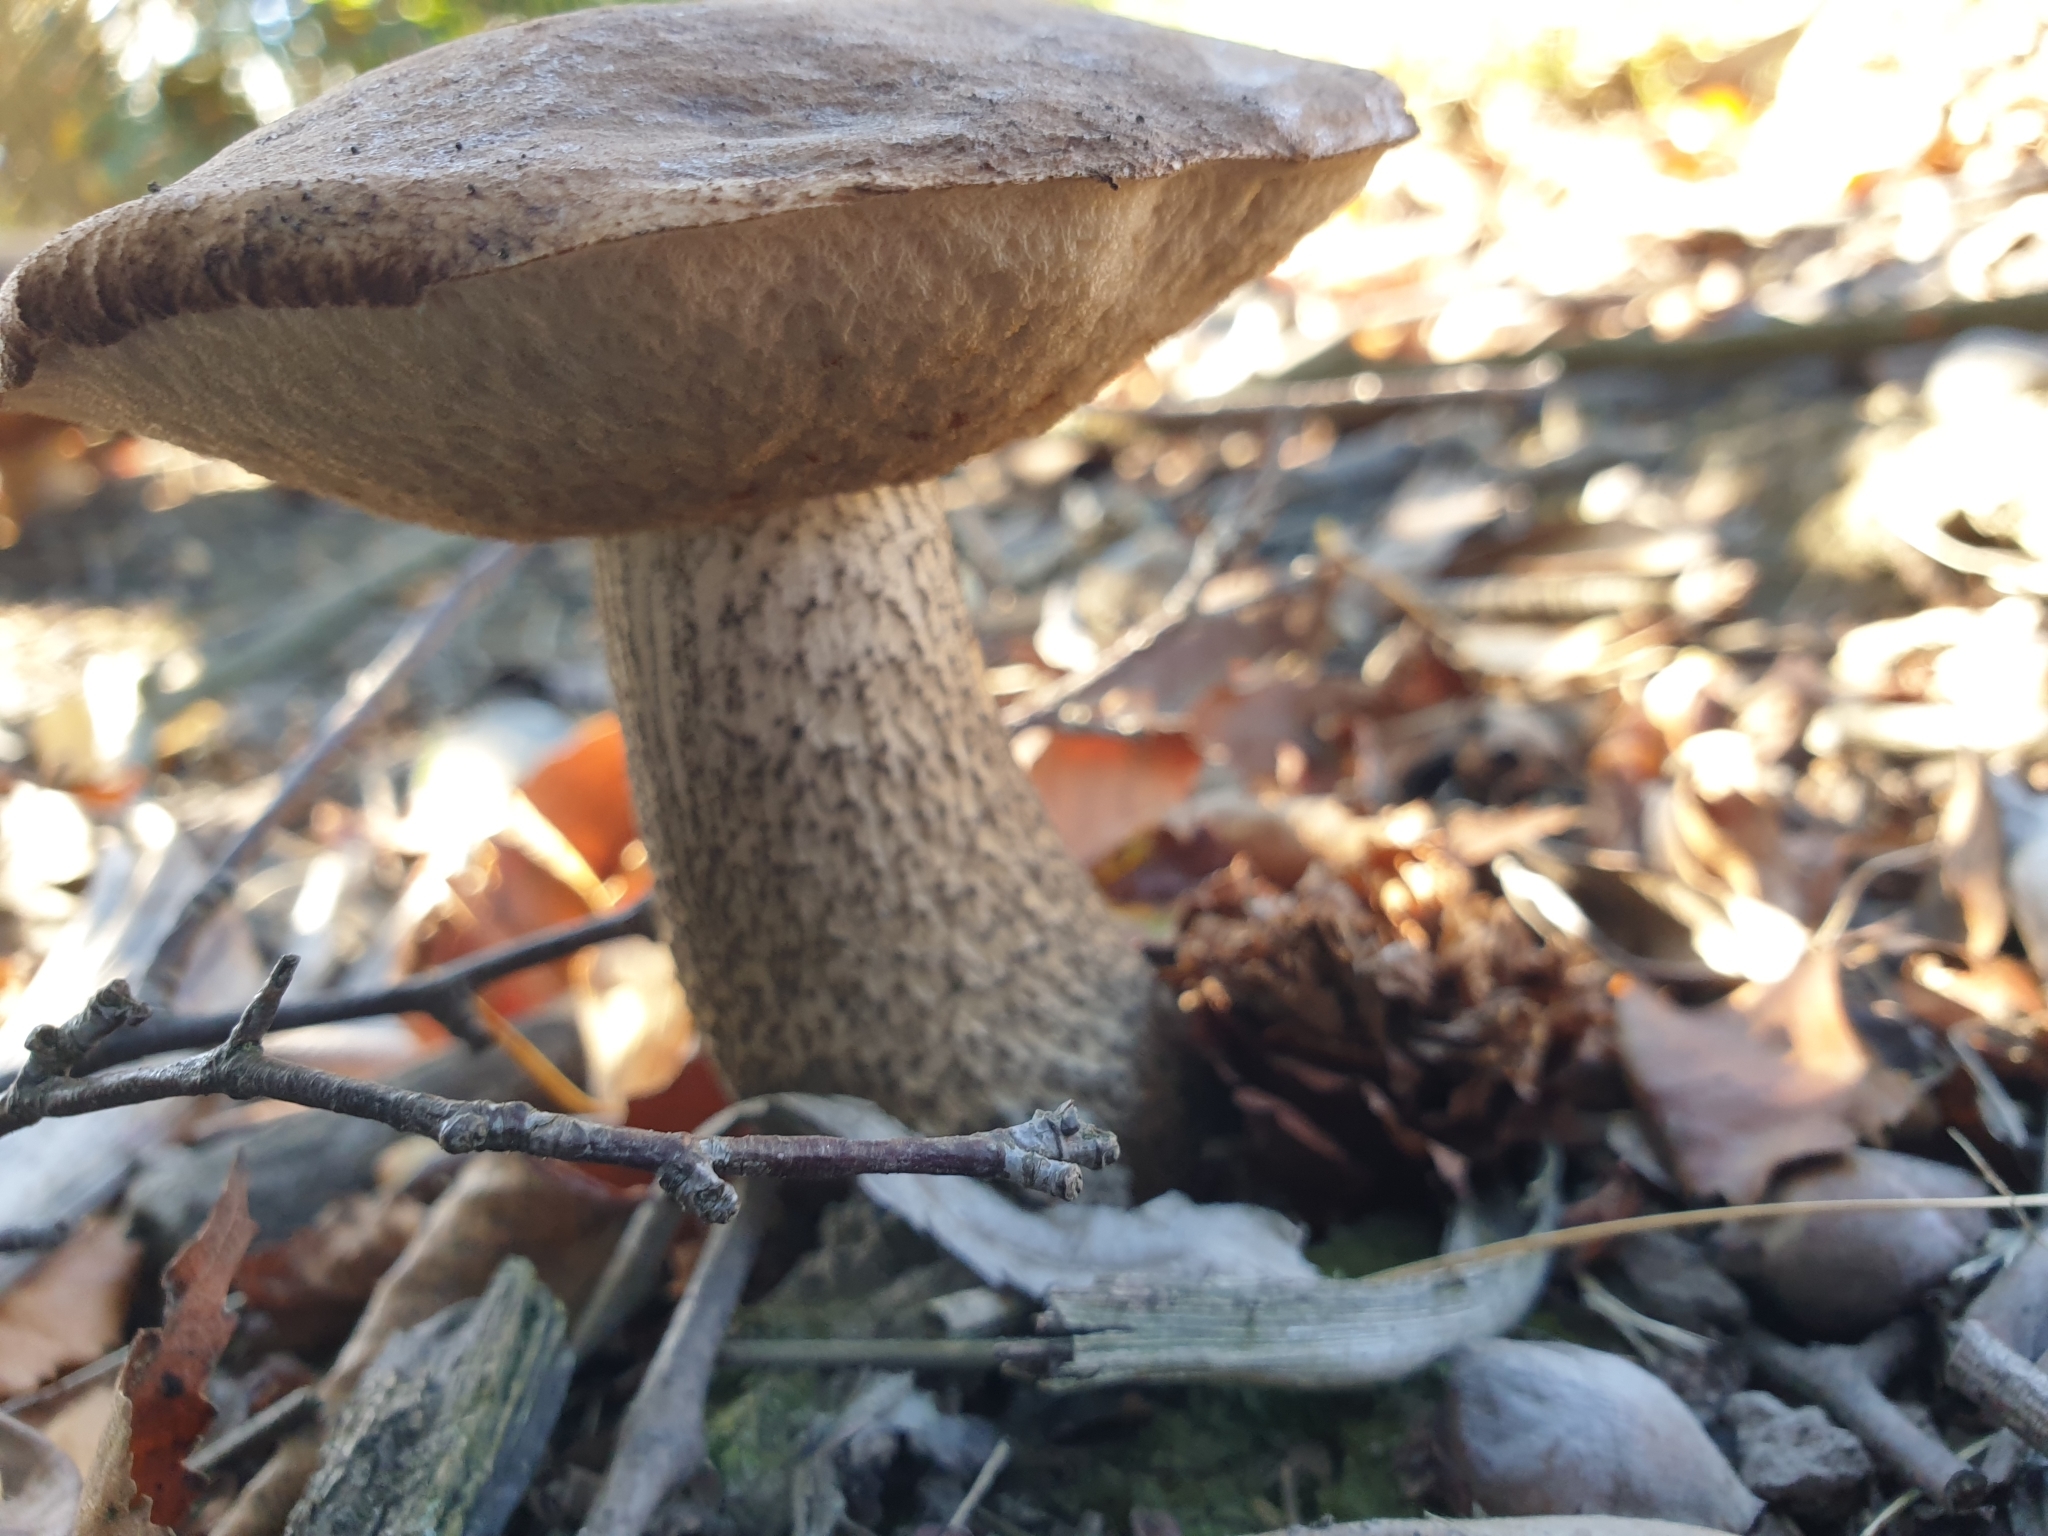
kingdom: Fungi
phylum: Basidiomycota
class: Agaricomycetes
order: Boletales
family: Boletaceae
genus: Leccinum
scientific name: Leccinum scabrum
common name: Blushing bolete
